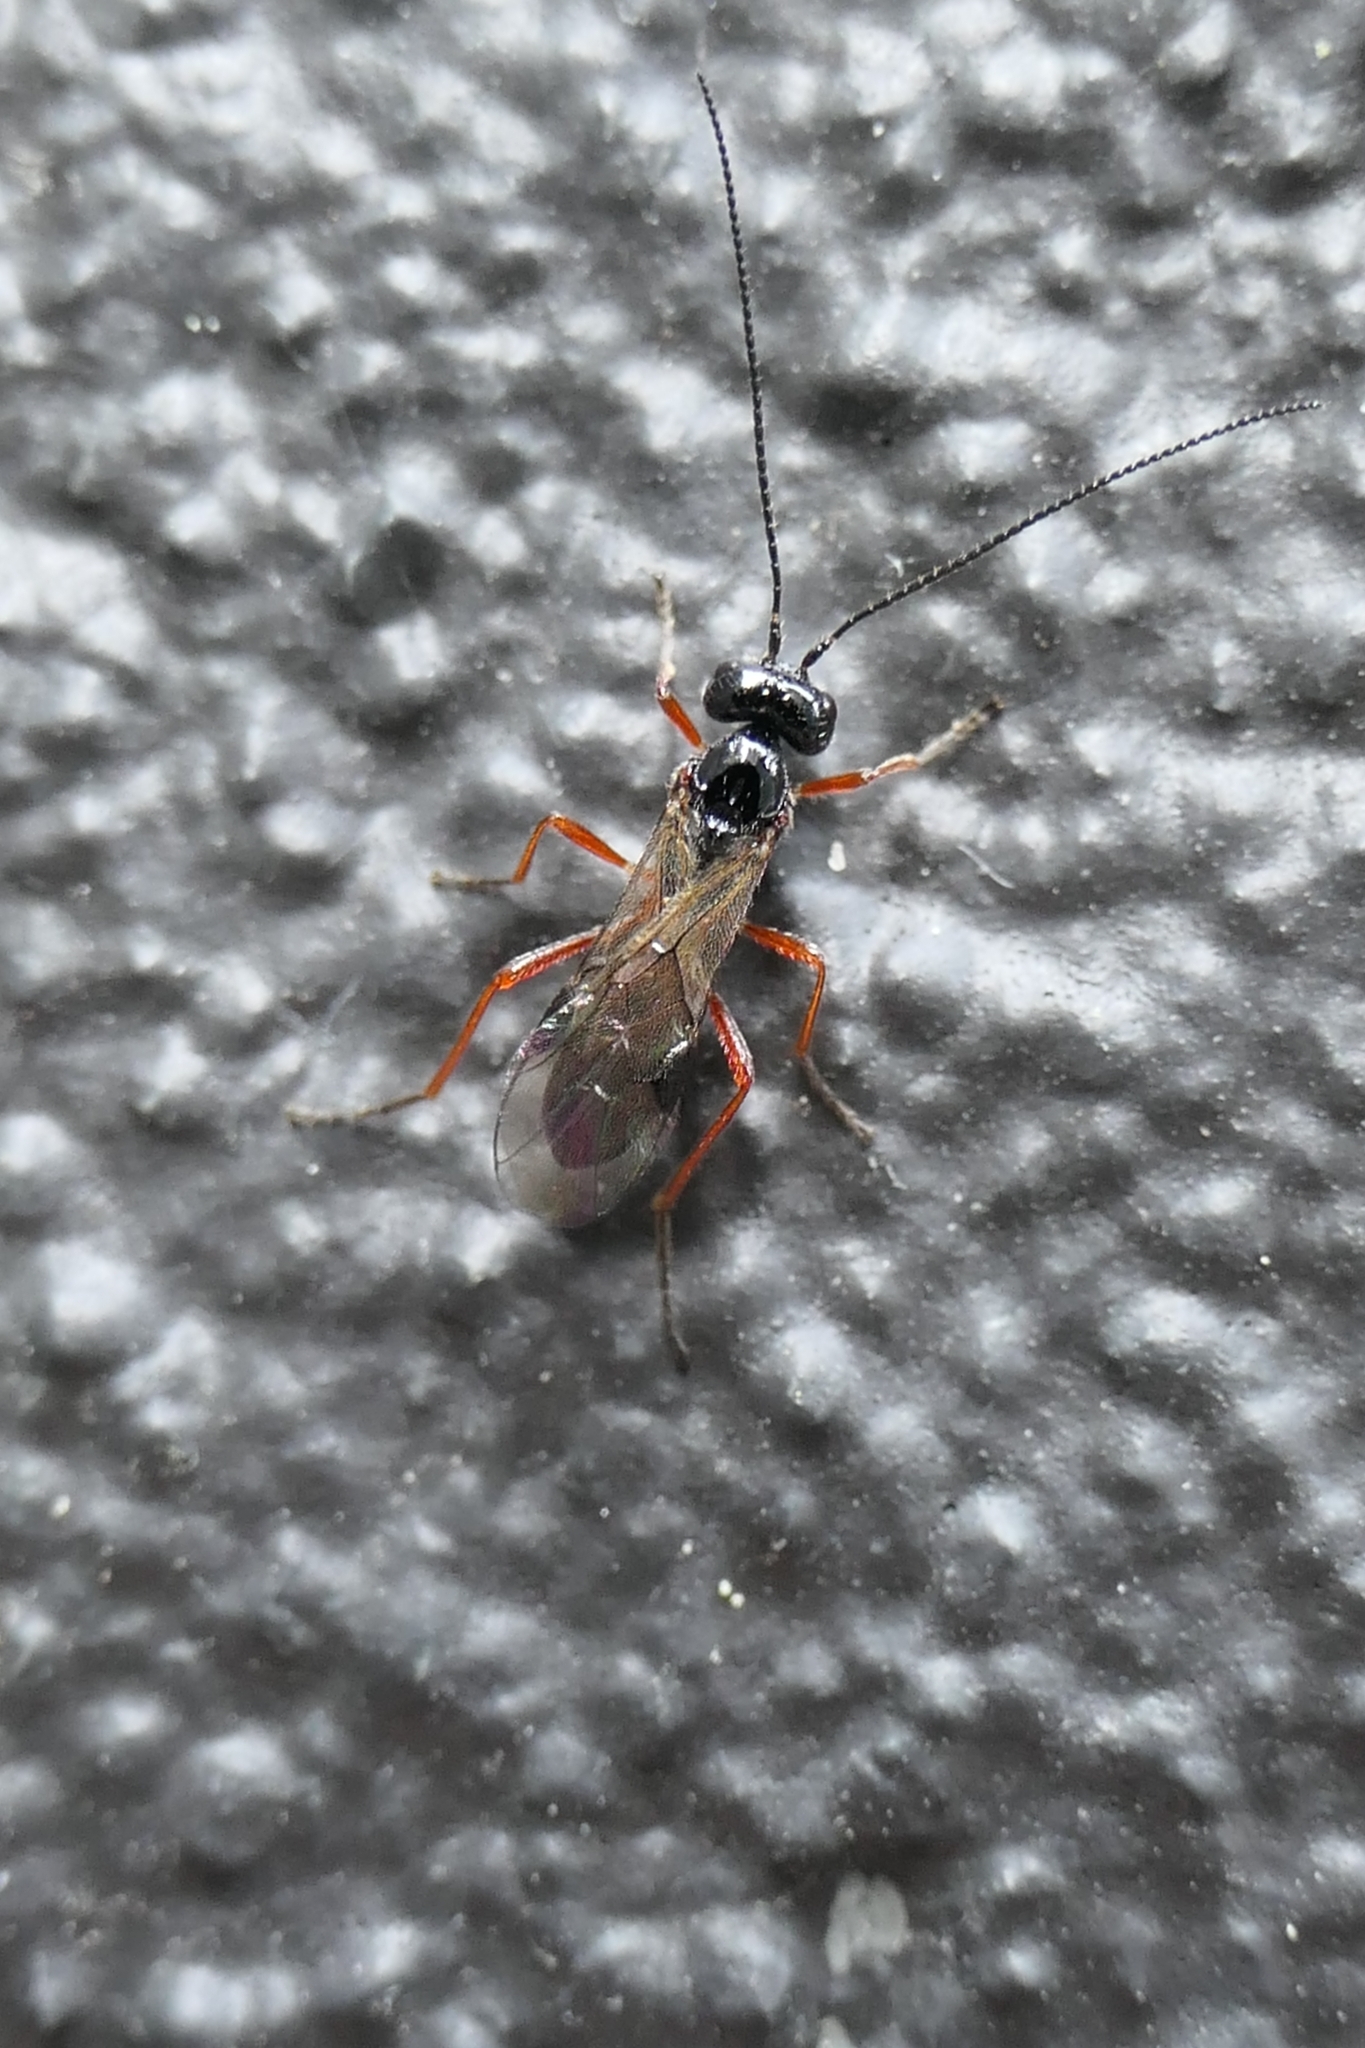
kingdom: Animalia
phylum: Arthropoda
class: Insecta
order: Hymenoptera
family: Braconidae
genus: Alysia
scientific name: Alysia manducator
